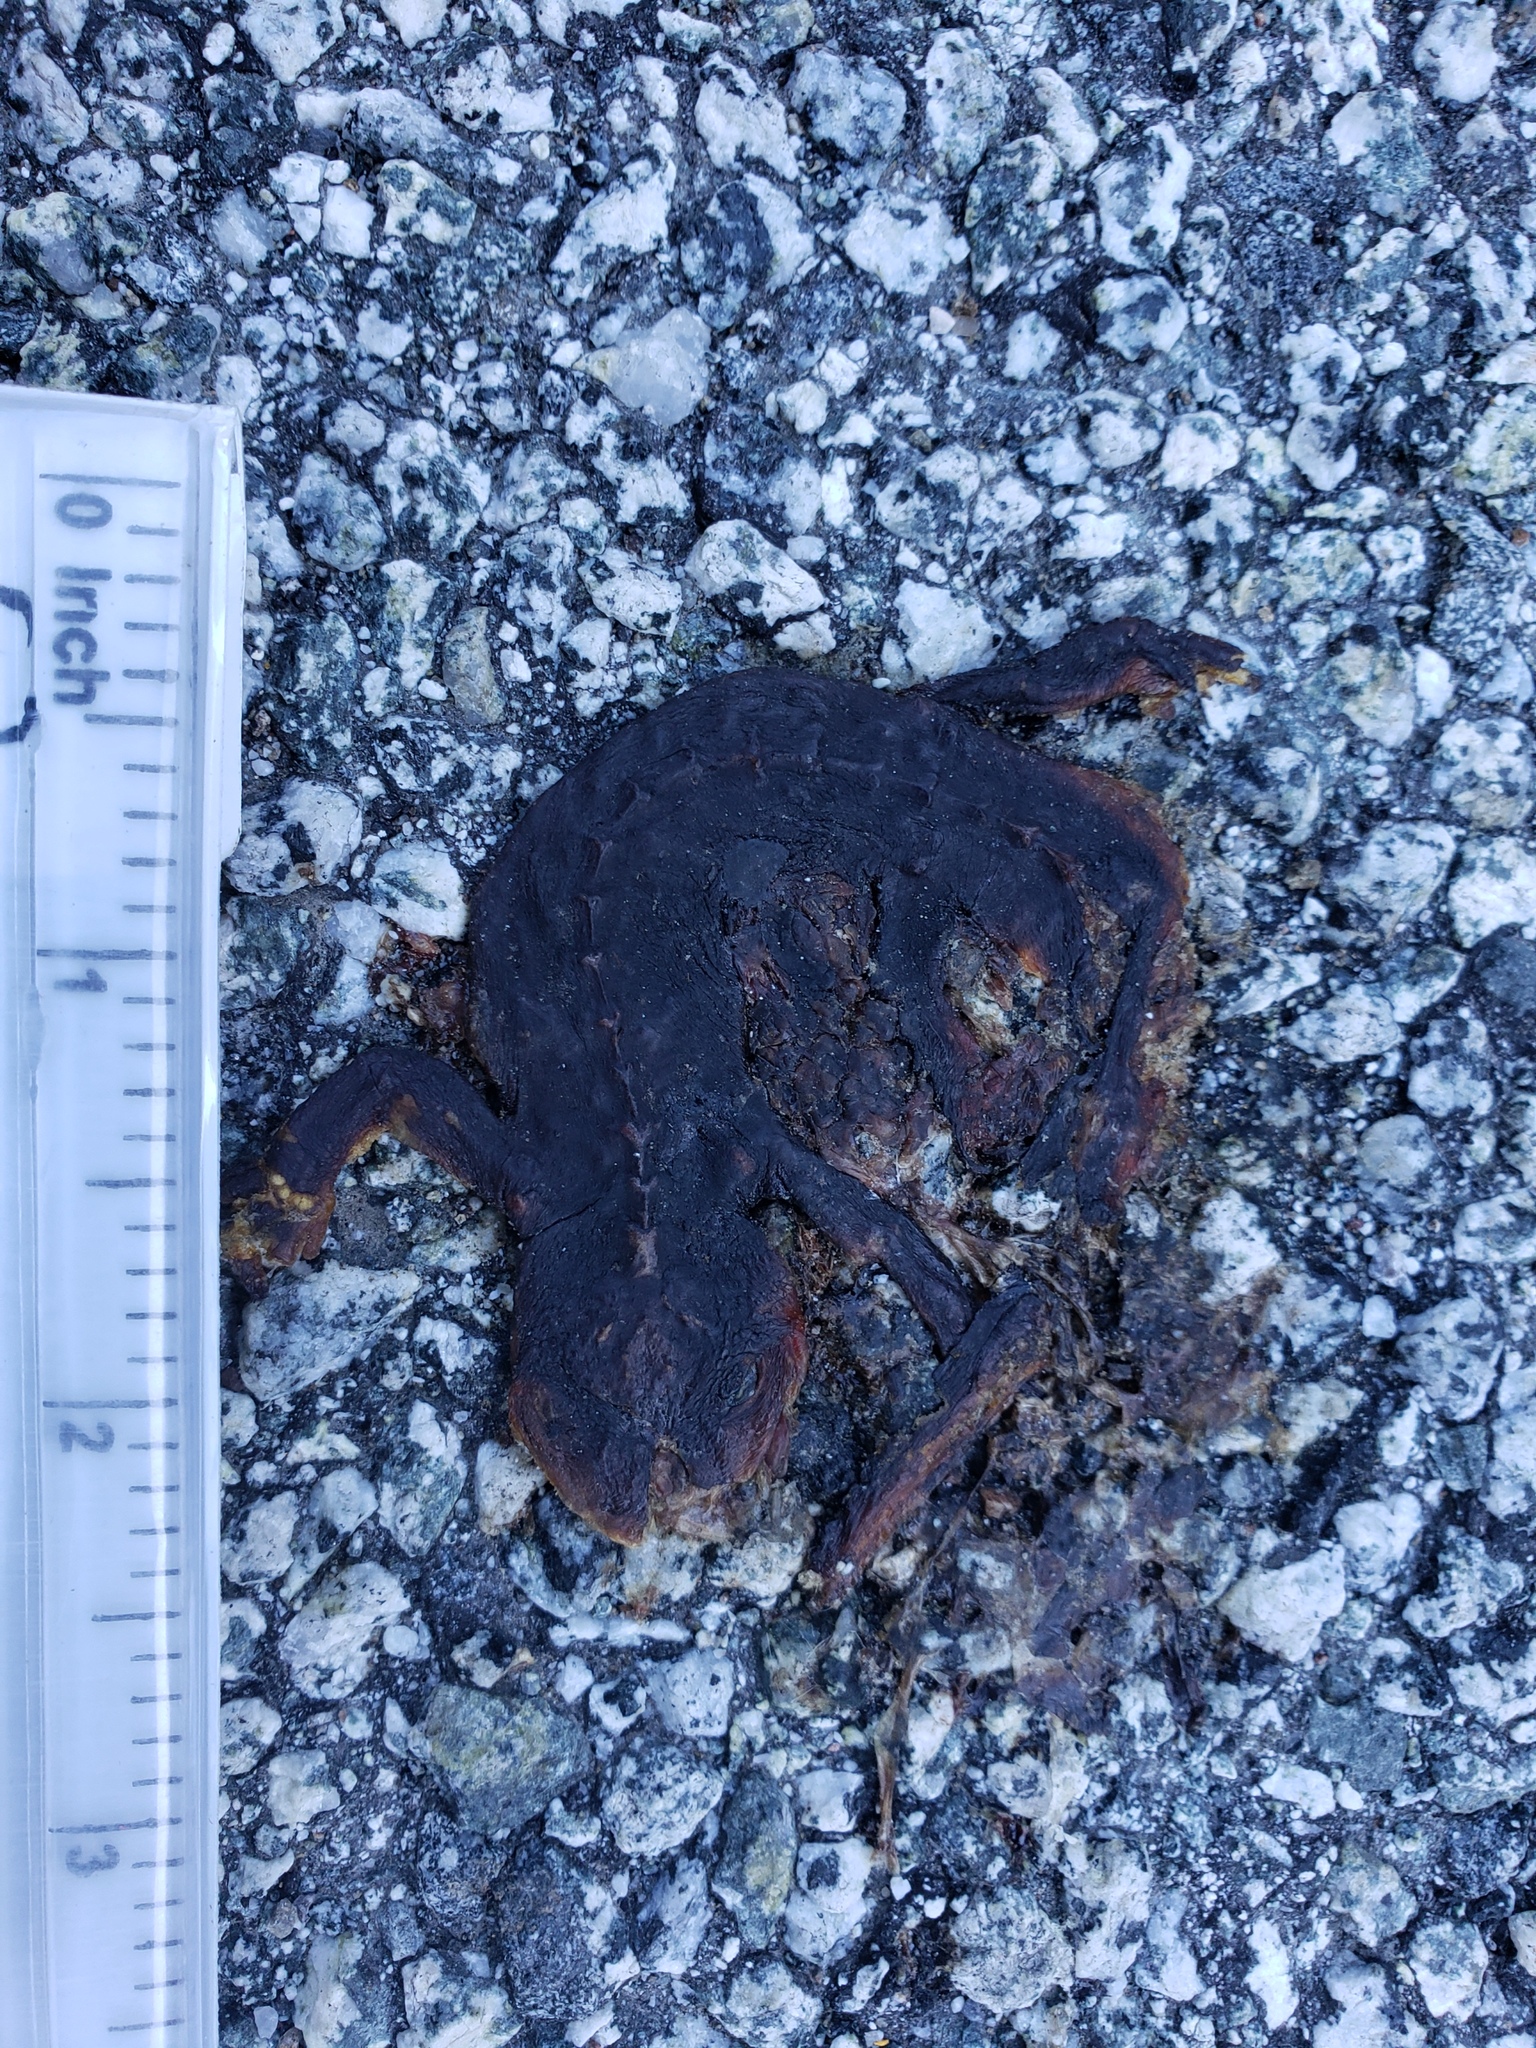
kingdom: Animalia
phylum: Chordata
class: Amphibia
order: Caudata
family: Salamandridae
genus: Taricha
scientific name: Taricha
